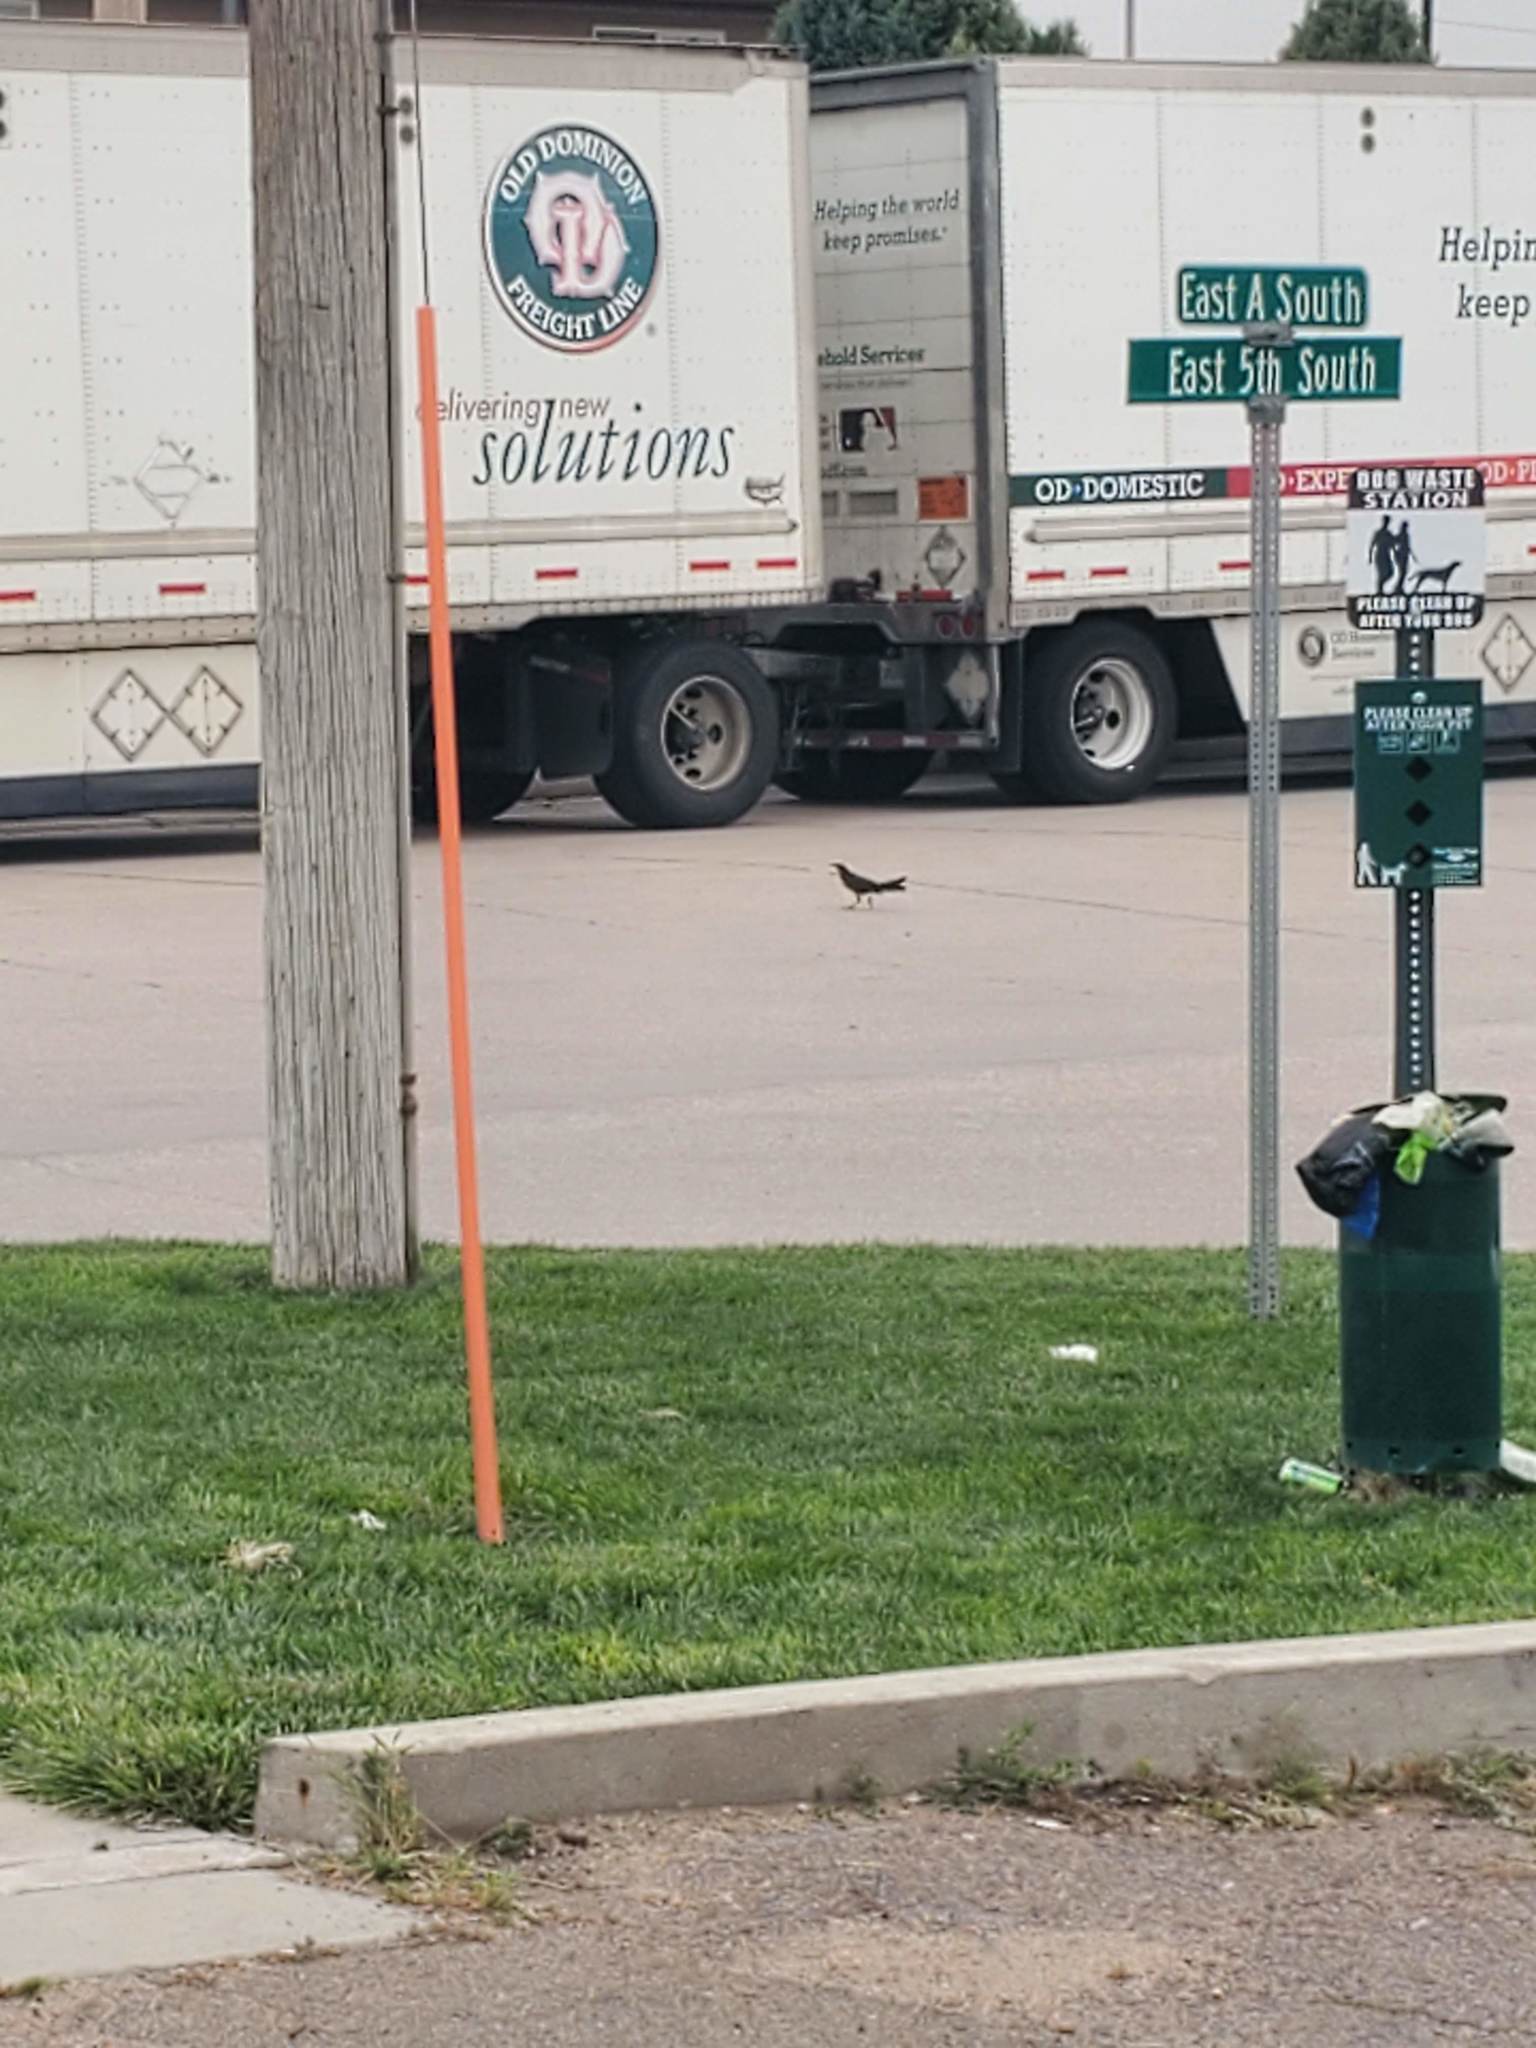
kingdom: Animalia
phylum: Chordata
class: Aves
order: Passeriformes
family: Icteridae
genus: Quiscalus
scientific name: Quiscalus mexicanus
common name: Great-tailed grackle
